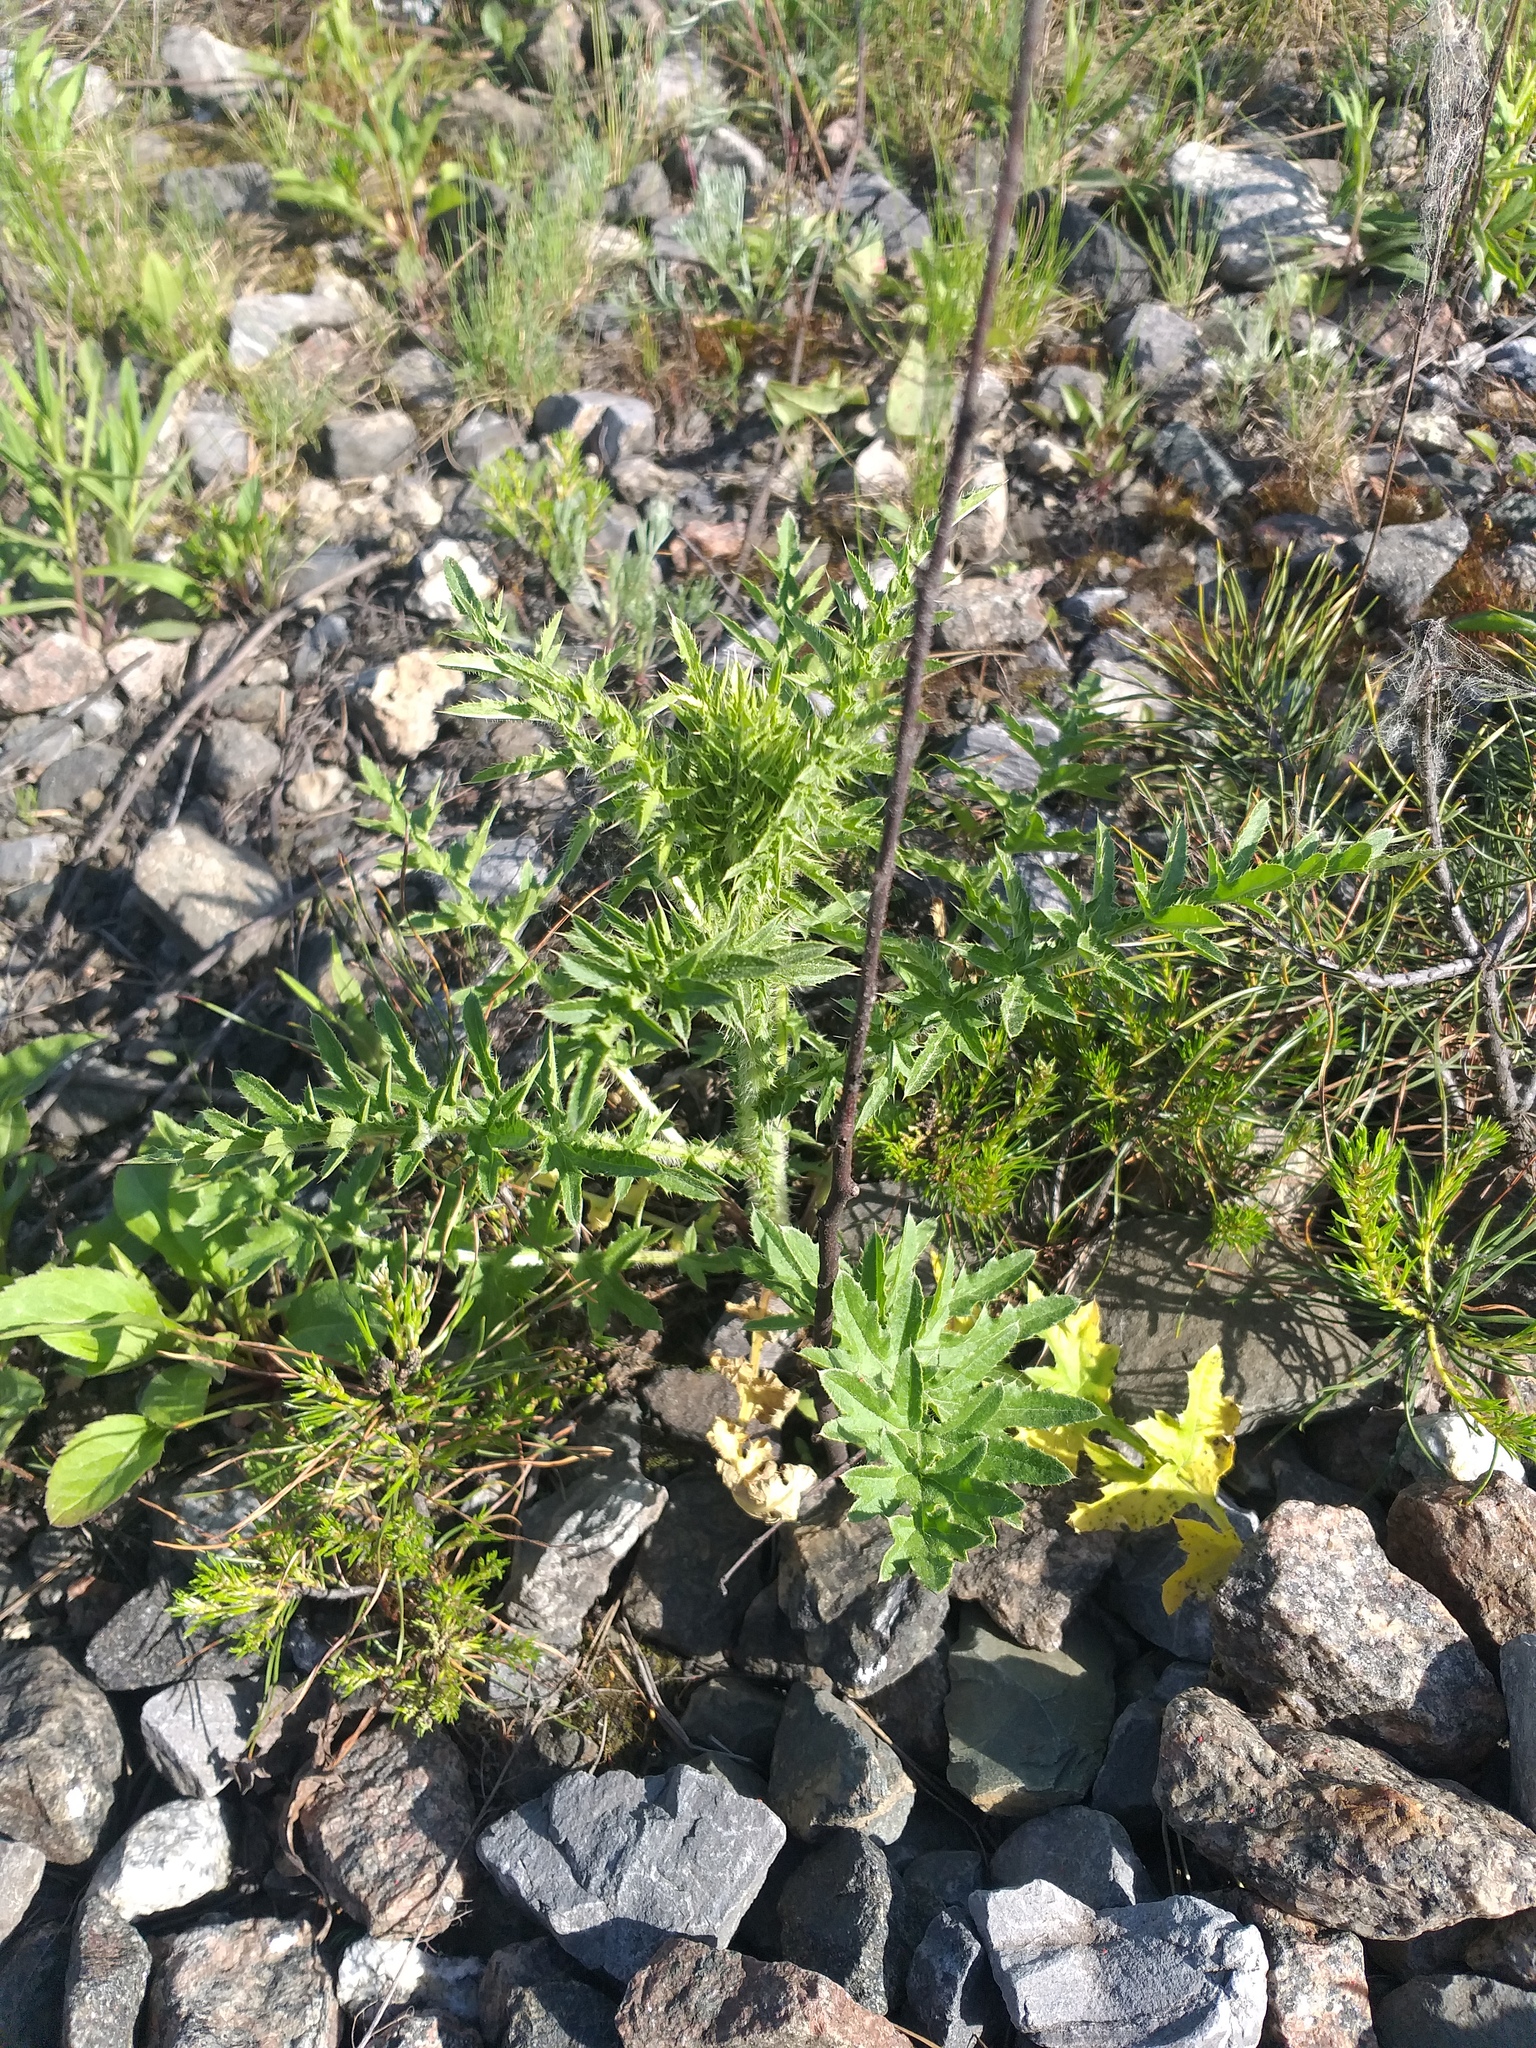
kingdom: Plantae
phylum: Tracheophyta
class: Magnoliopsida
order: Asterales
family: Asteraceae
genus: Carduus
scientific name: Carduus acanthoides
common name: Plumeless thistle
